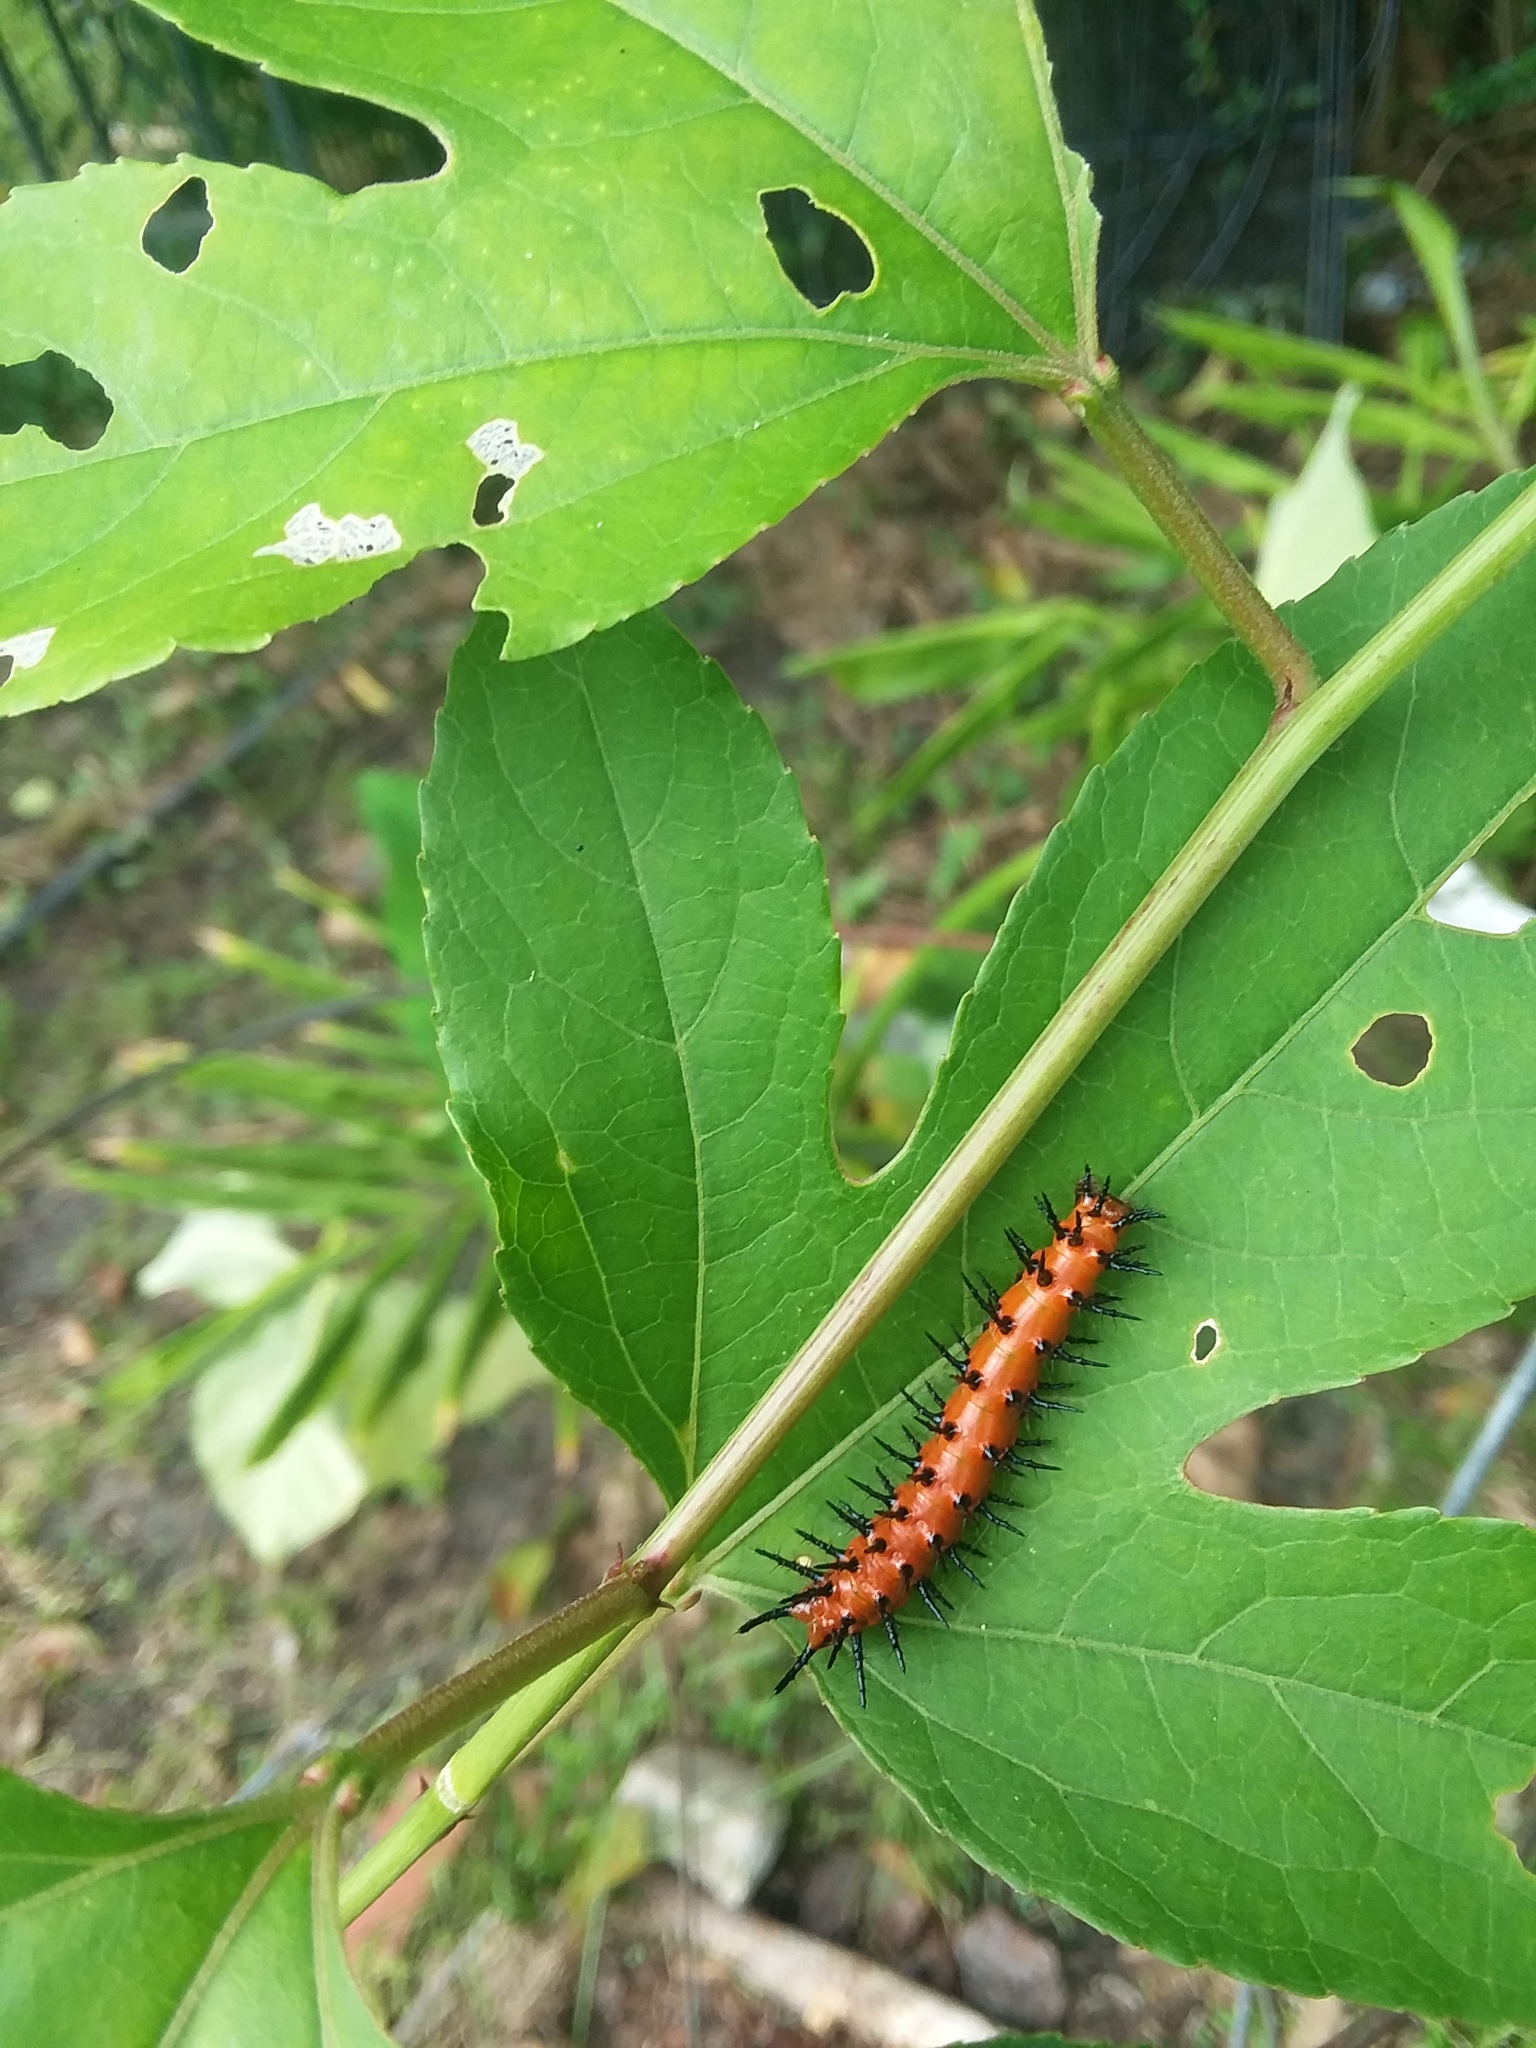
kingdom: Animalia
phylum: Arthropoda
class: Insecta
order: Lepidoptera
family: Nymphalidae
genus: Dione
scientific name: Dione vanillae
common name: Gulf fritillary
